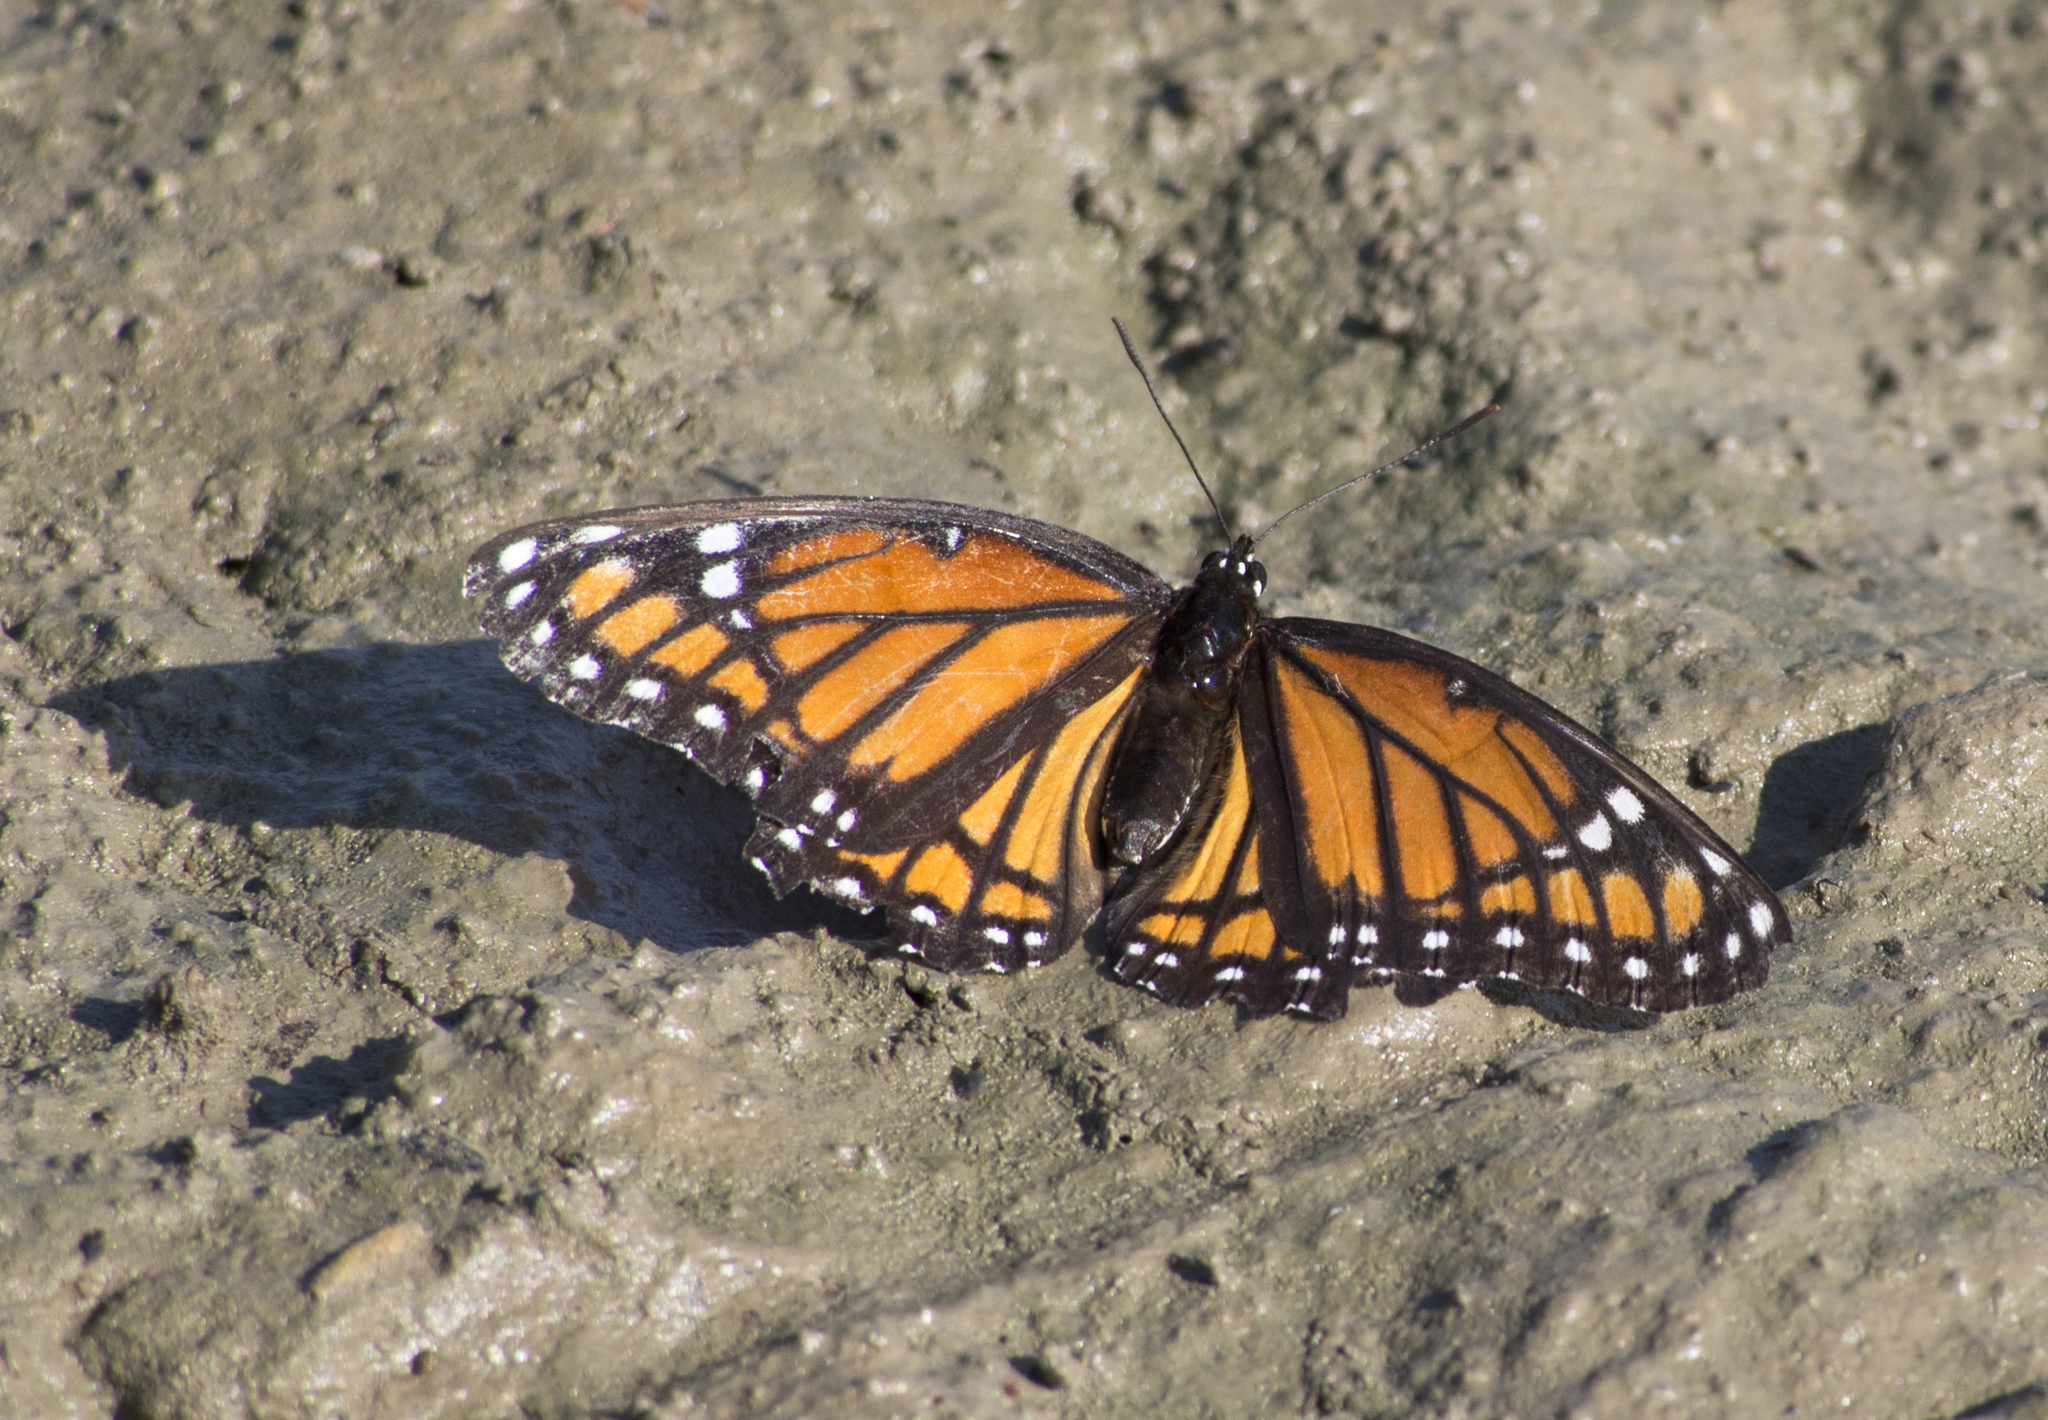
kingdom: Animalia
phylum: Arthropoda
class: Insecta
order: Lepidoptera
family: Nymphalidae
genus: Limenitis
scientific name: Limenitis archippus
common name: Viceroy
